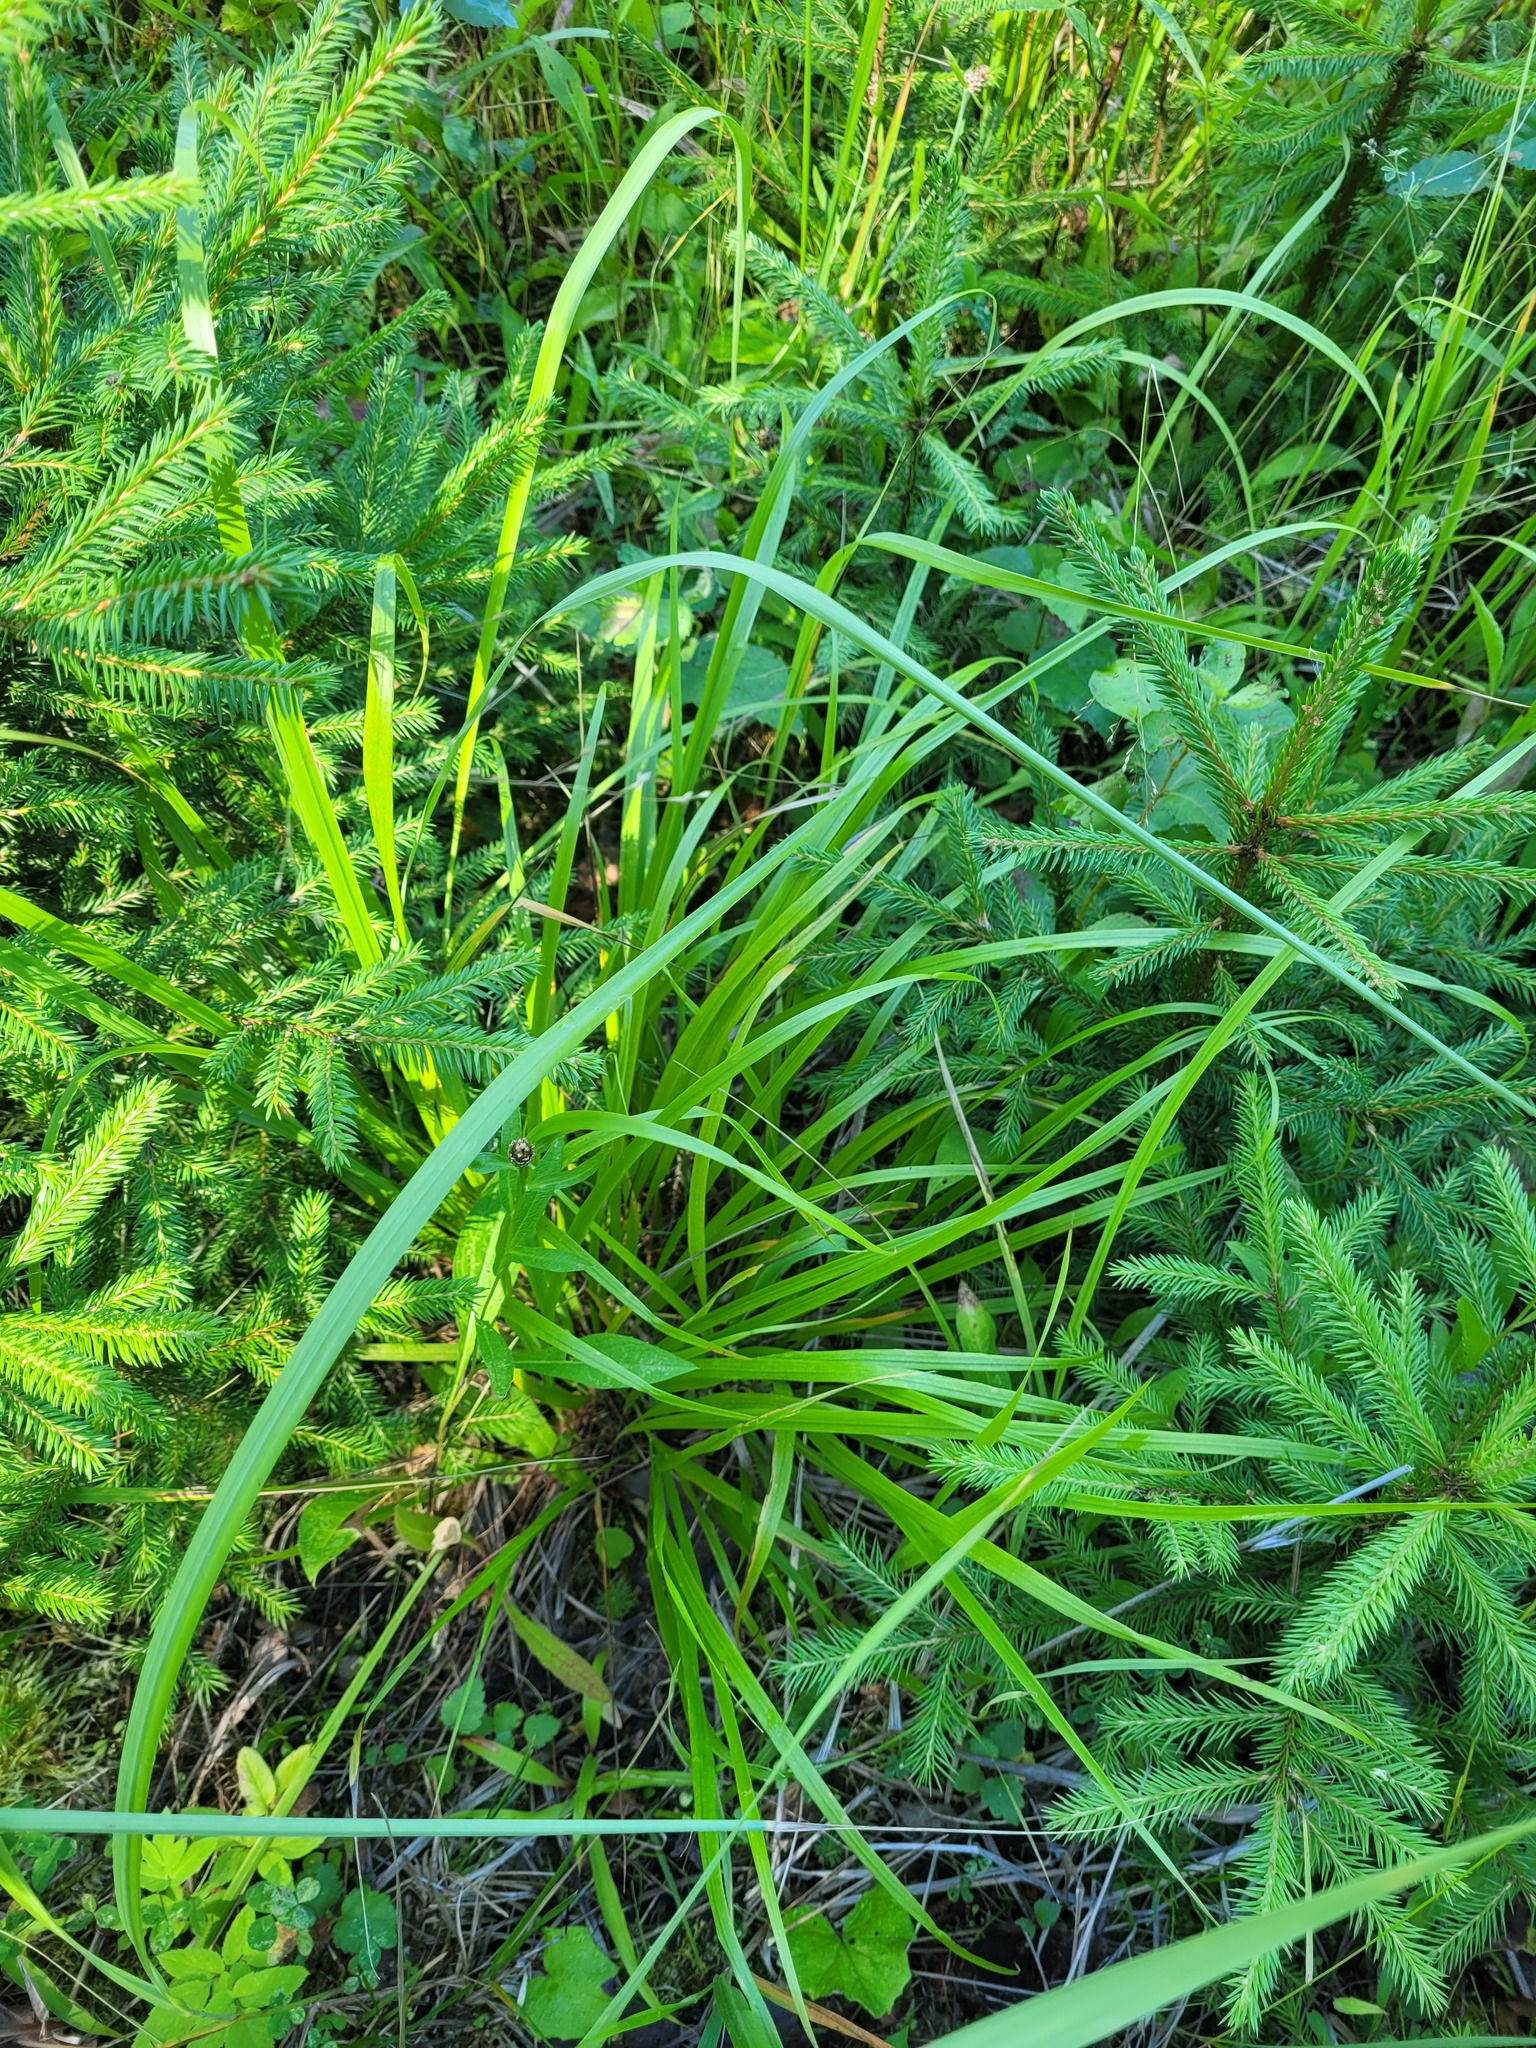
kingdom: Plantae
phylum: Tracheophyta
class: Liliopsida
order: Poales
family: Poaceae
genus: Calamagrostis
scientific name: Calamagrostis arundinacea
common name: Metskastik
